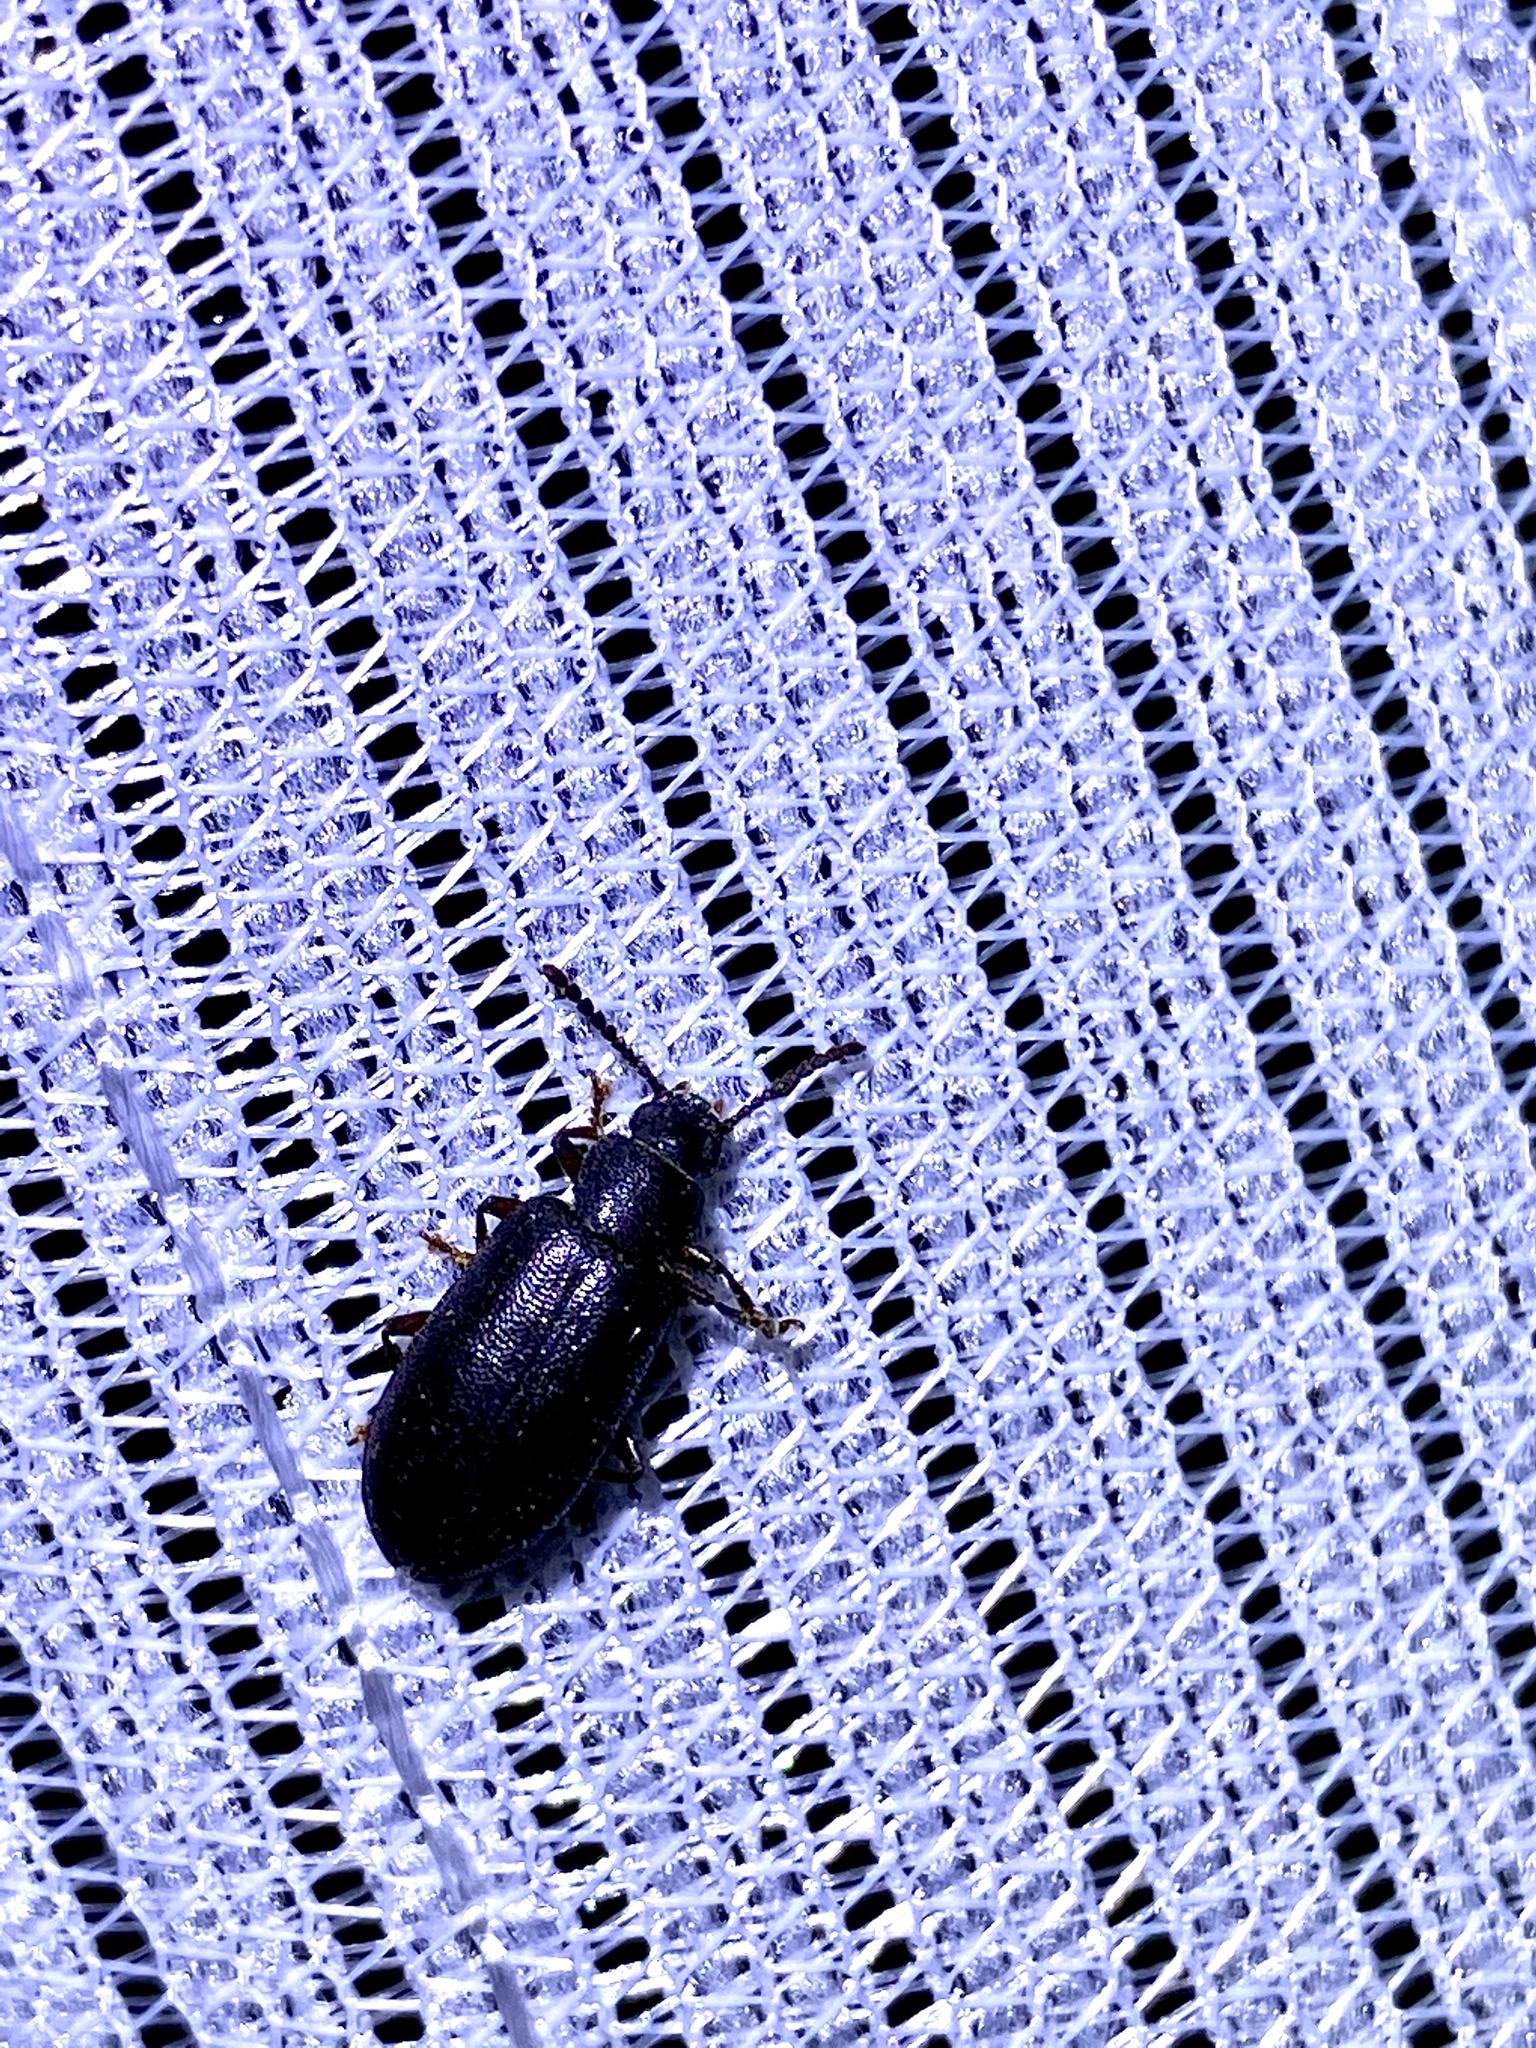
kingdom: Animalia
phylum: Arthropoda
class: Insecta
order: Coleoptera
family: Tenebrionidae
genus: Luprops
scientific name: Luprops orientalis
